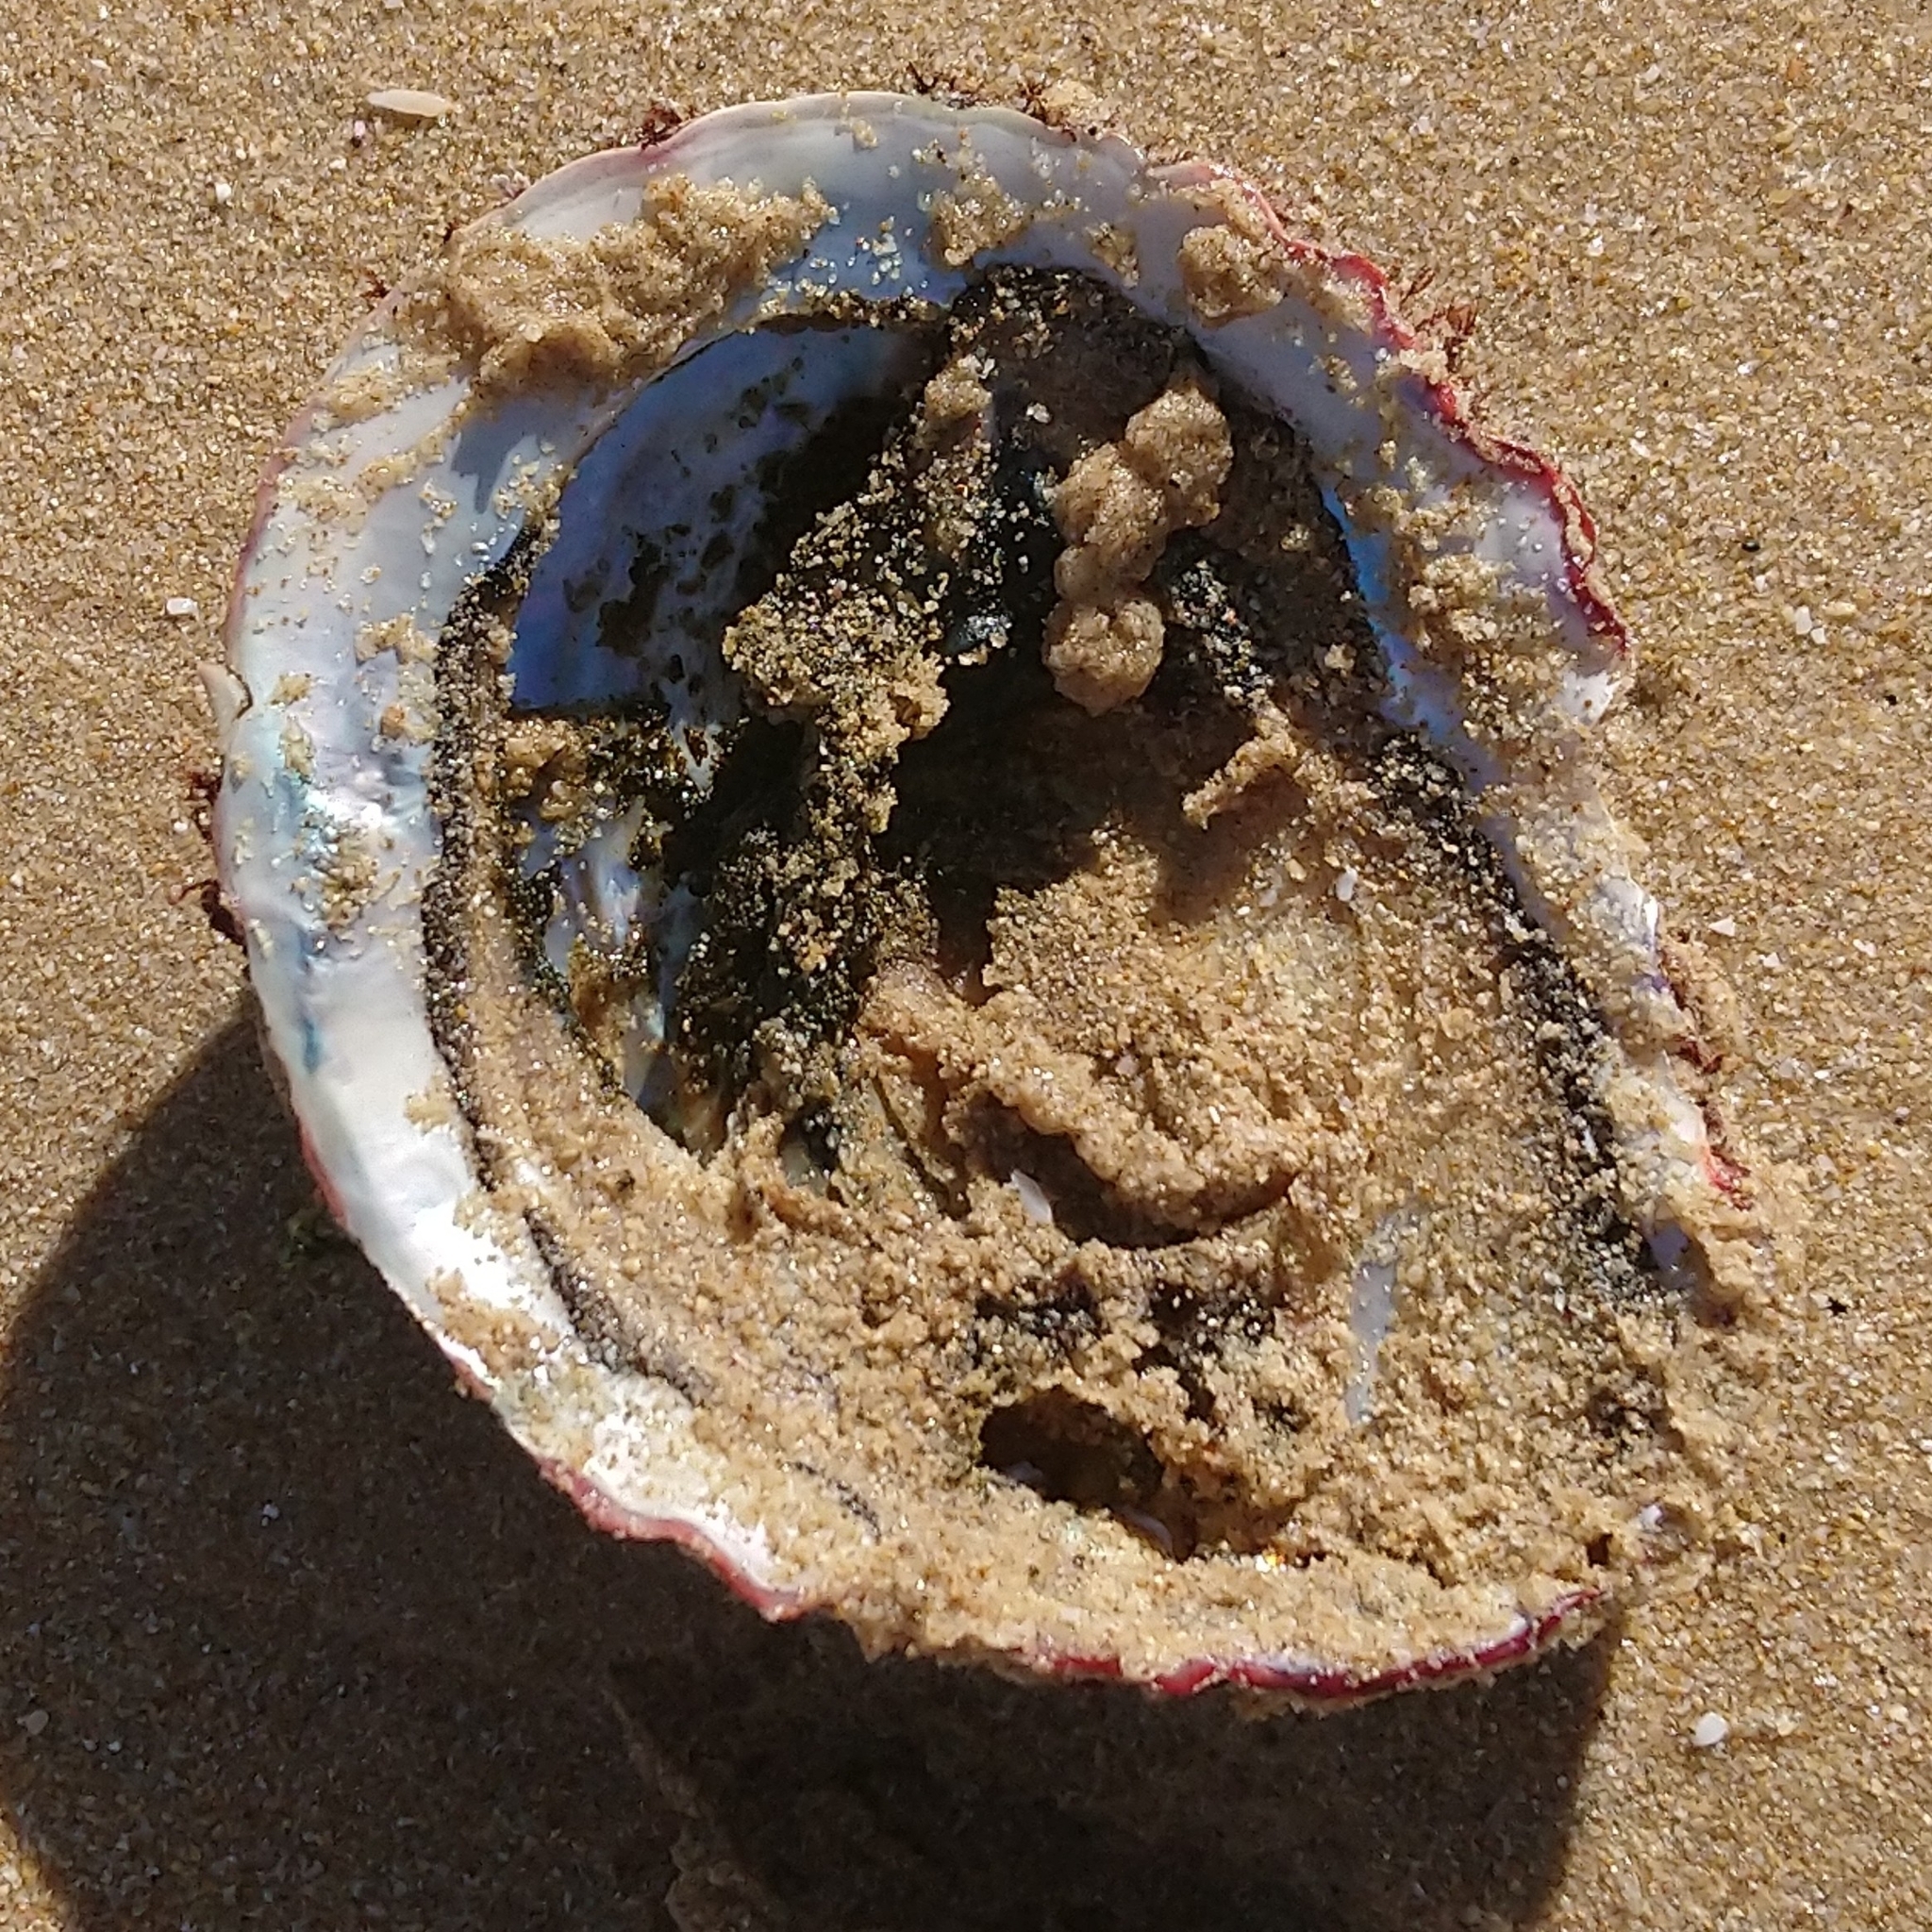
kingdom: Animalia
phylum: Mollusca
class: Gastropoda
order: Lepetellida
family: Haliotidae
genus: Haliotis
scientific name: Haliotis midae
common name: Perlemoen
